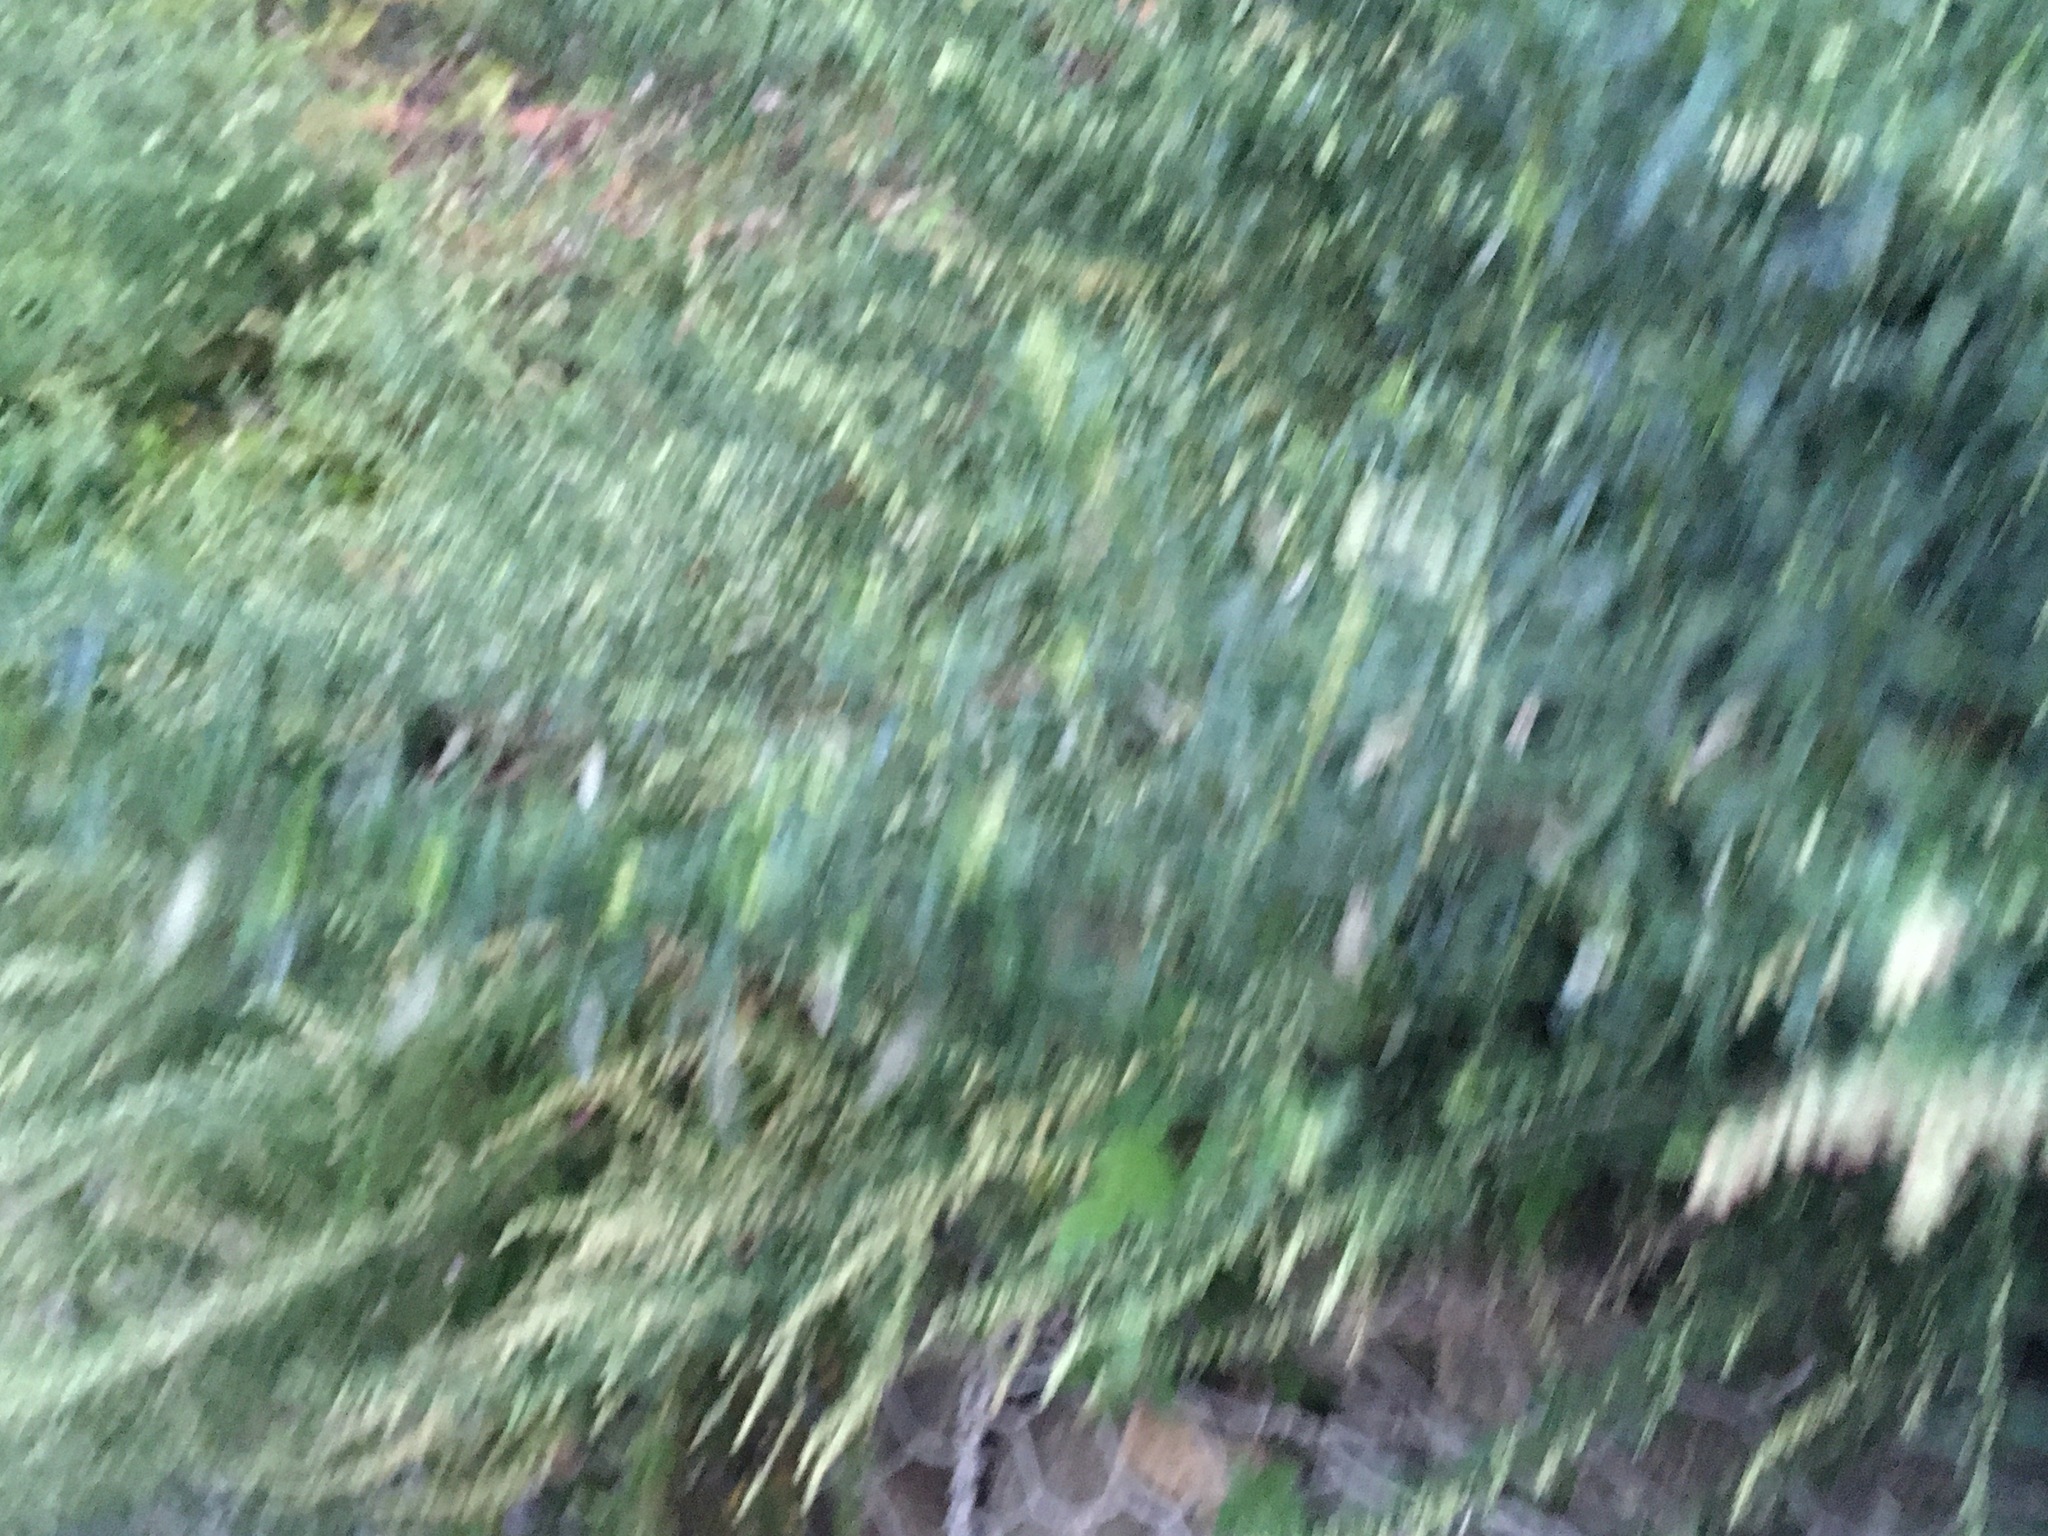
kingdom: Plantae
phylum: Tracheophyta
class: Magnoliopsida
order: Asterales
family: Asteraceae
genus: Artemisia
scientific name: Artemisia vulgaris
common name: Mugwort
